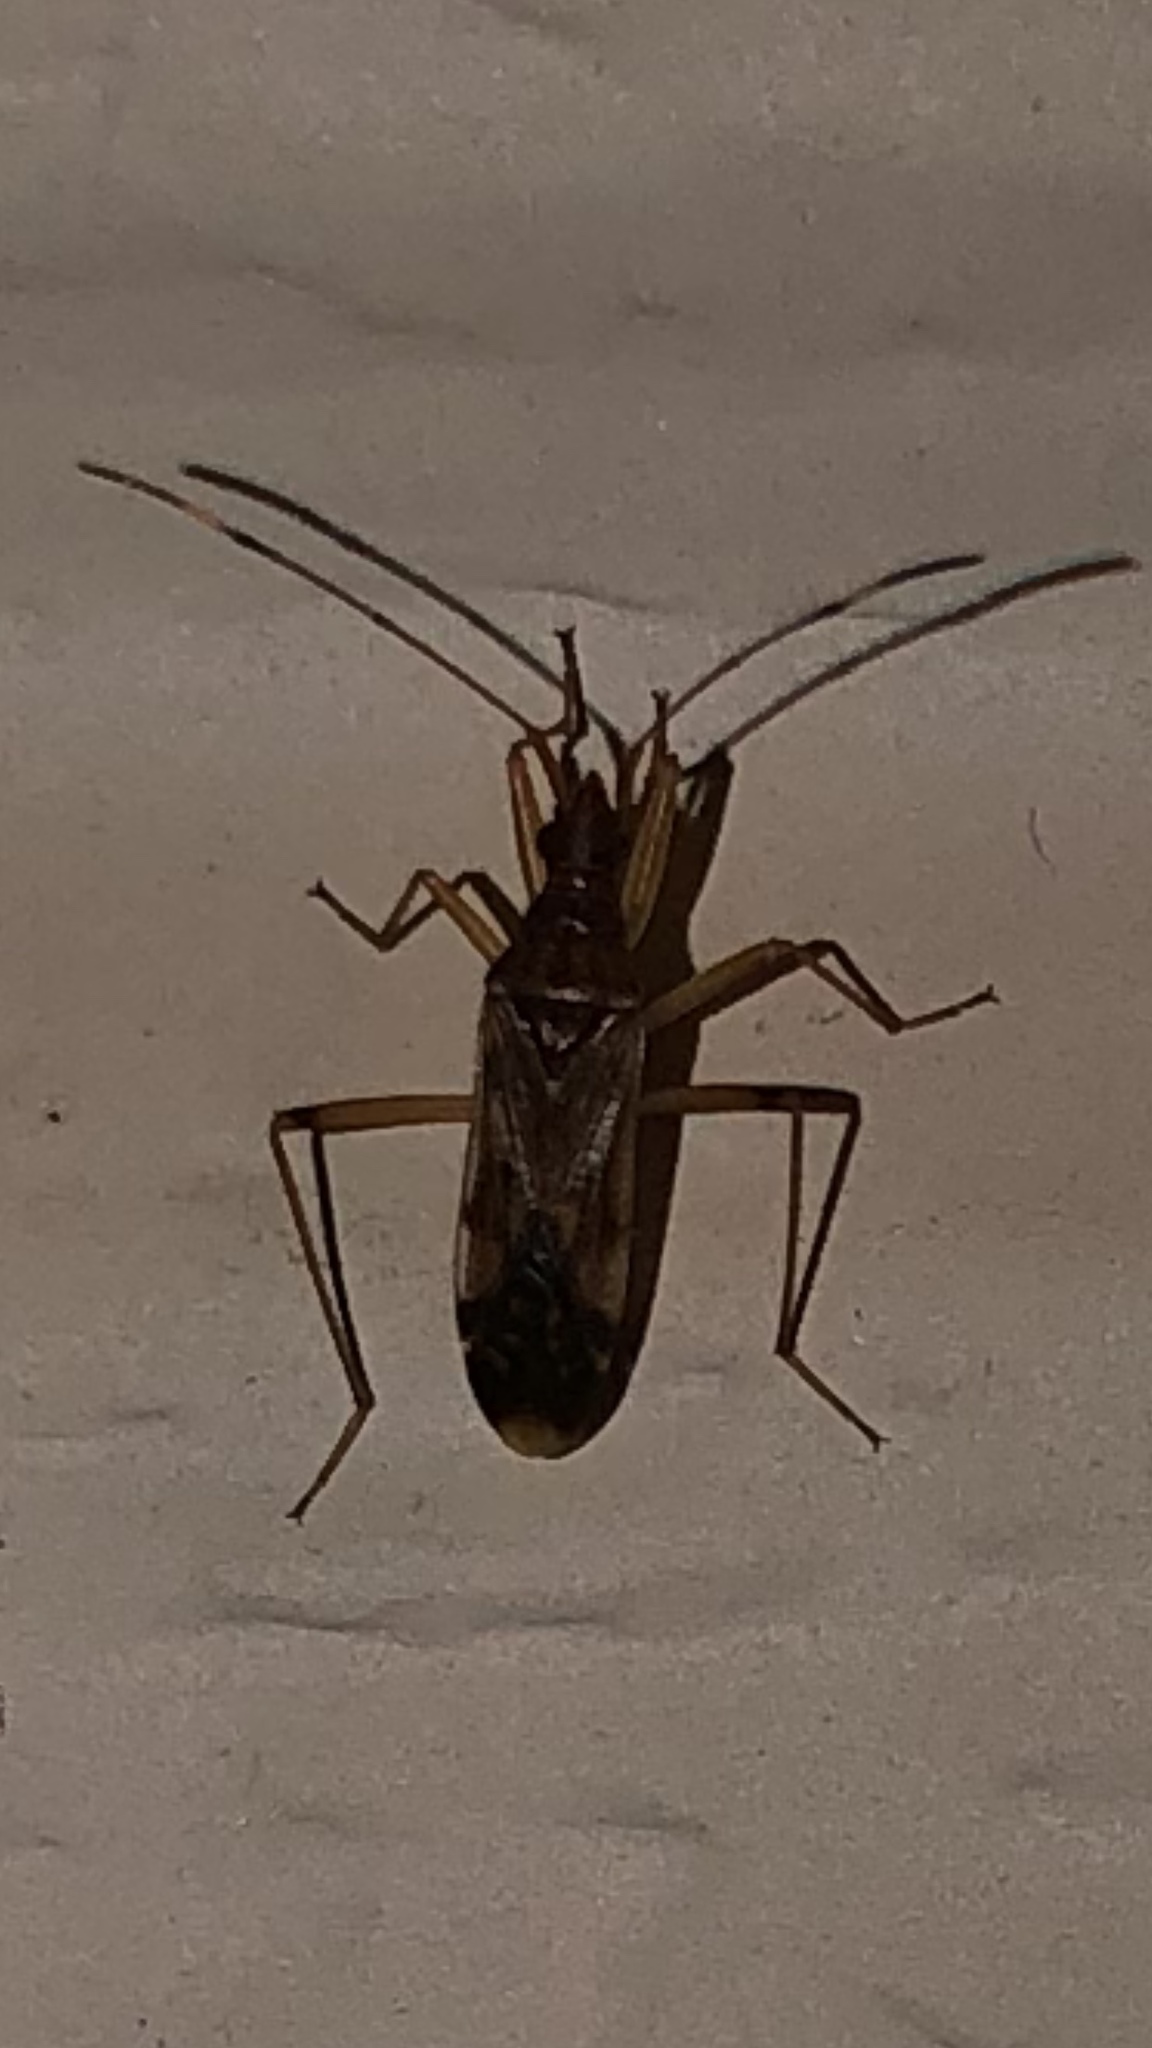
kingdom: Animalia
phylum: Arthropoda
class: Insecta
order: Hemiptera
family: Rhyparochromidae
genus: Ozophora
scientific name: Ozophora depicturata
